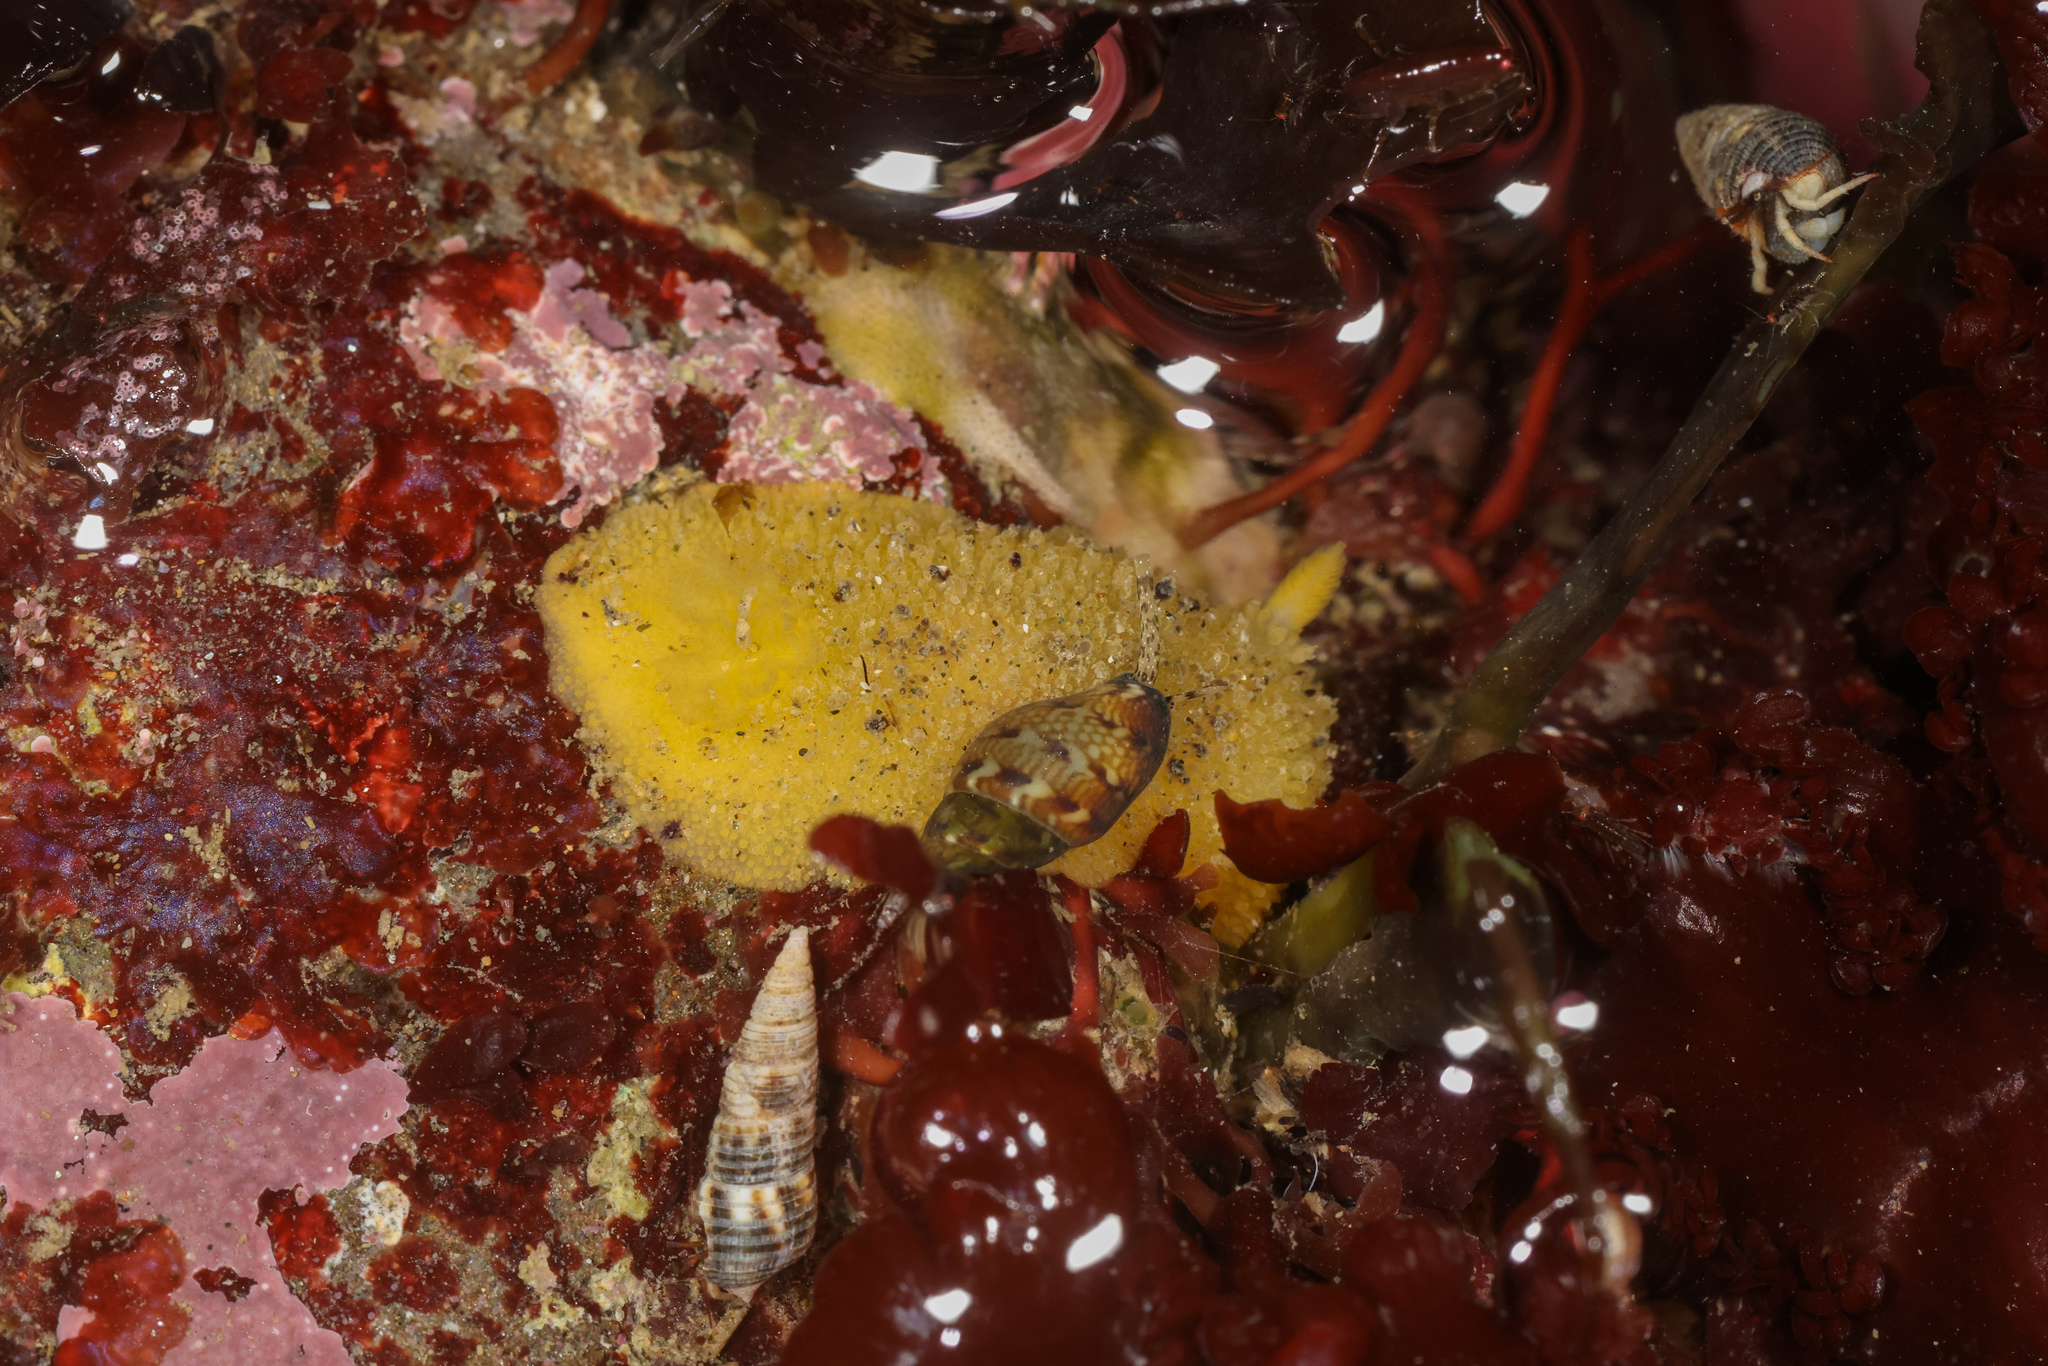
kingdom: Animalia
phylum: Mollusca
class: Gastropoda
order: Nudibranchia
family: Dorididae
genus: Doris
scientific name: Doris montereyensis
